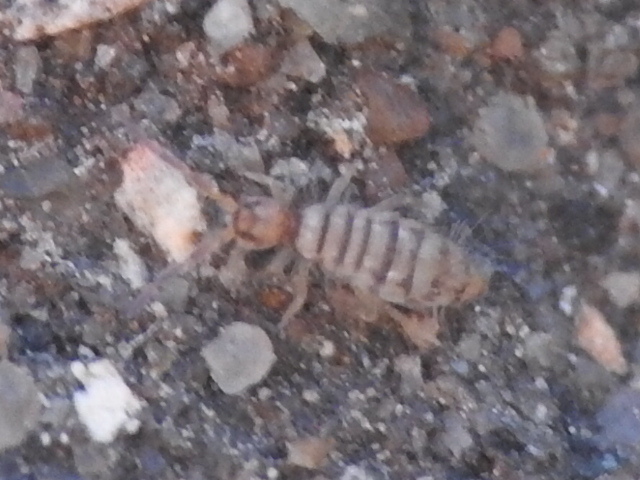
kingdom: Animalia
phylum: Arthropoda
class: Collembola
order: Entomobryomorpha
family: Entomobryidae
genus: Entomobrya
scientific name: Entomobrya atrocincta
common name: Springtail
